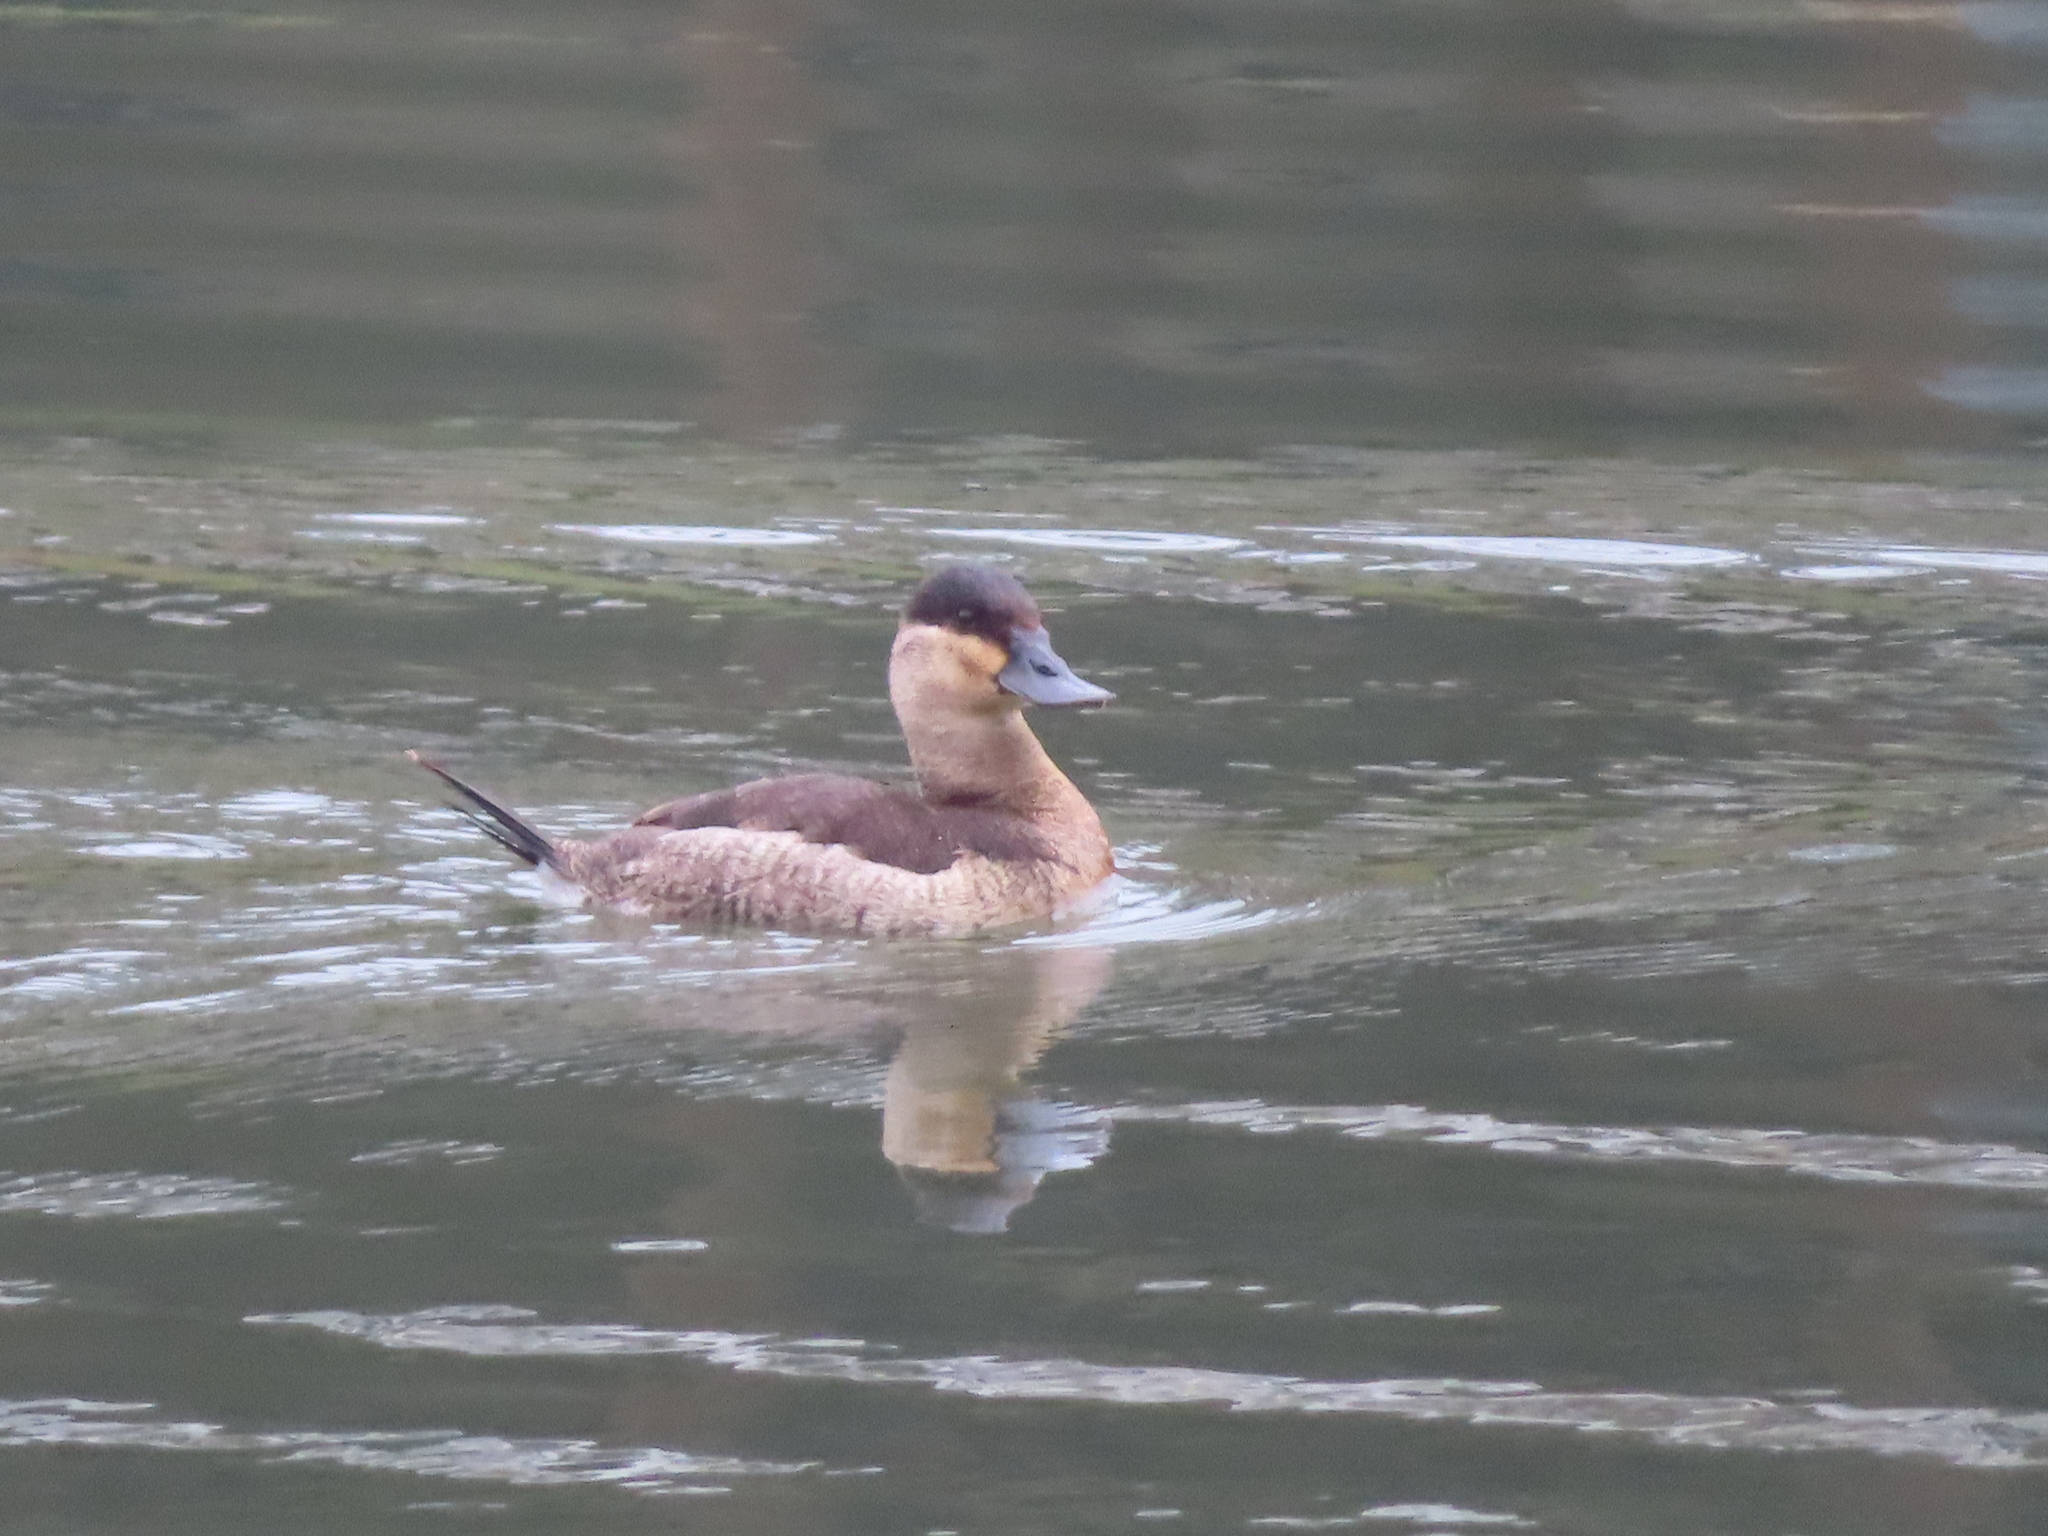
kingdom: Animalia
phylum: Chordata
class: Aves
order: Anseriformes
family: Anatidae
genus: Oxyura
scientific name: Oxyura jamaicensis
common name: Ruddy duck
